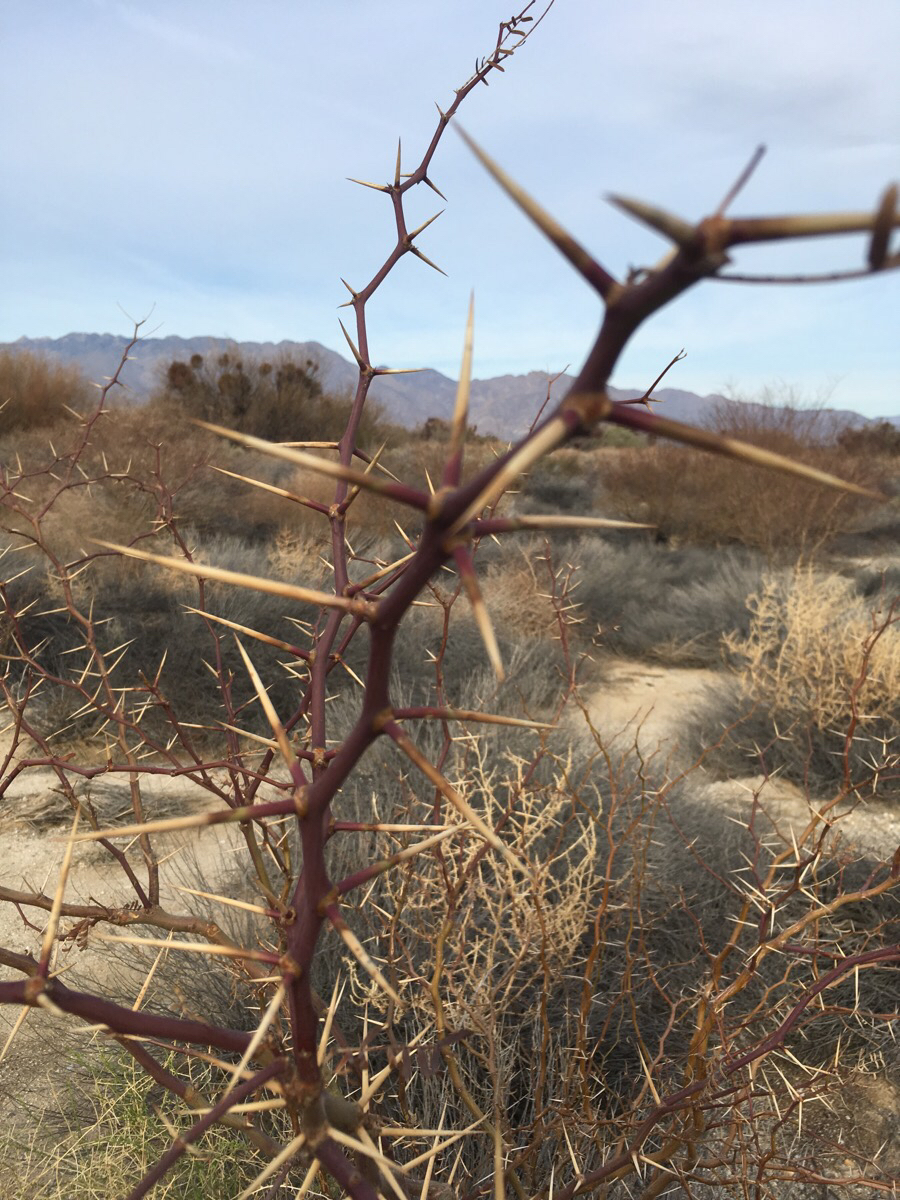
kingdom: Plantae
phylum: Tracheophyta
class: Magnoliopsida
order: Fabales
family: Fabaceae
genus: Prosopis
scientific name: Prosopis glandulosa
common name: Honey mesquite
